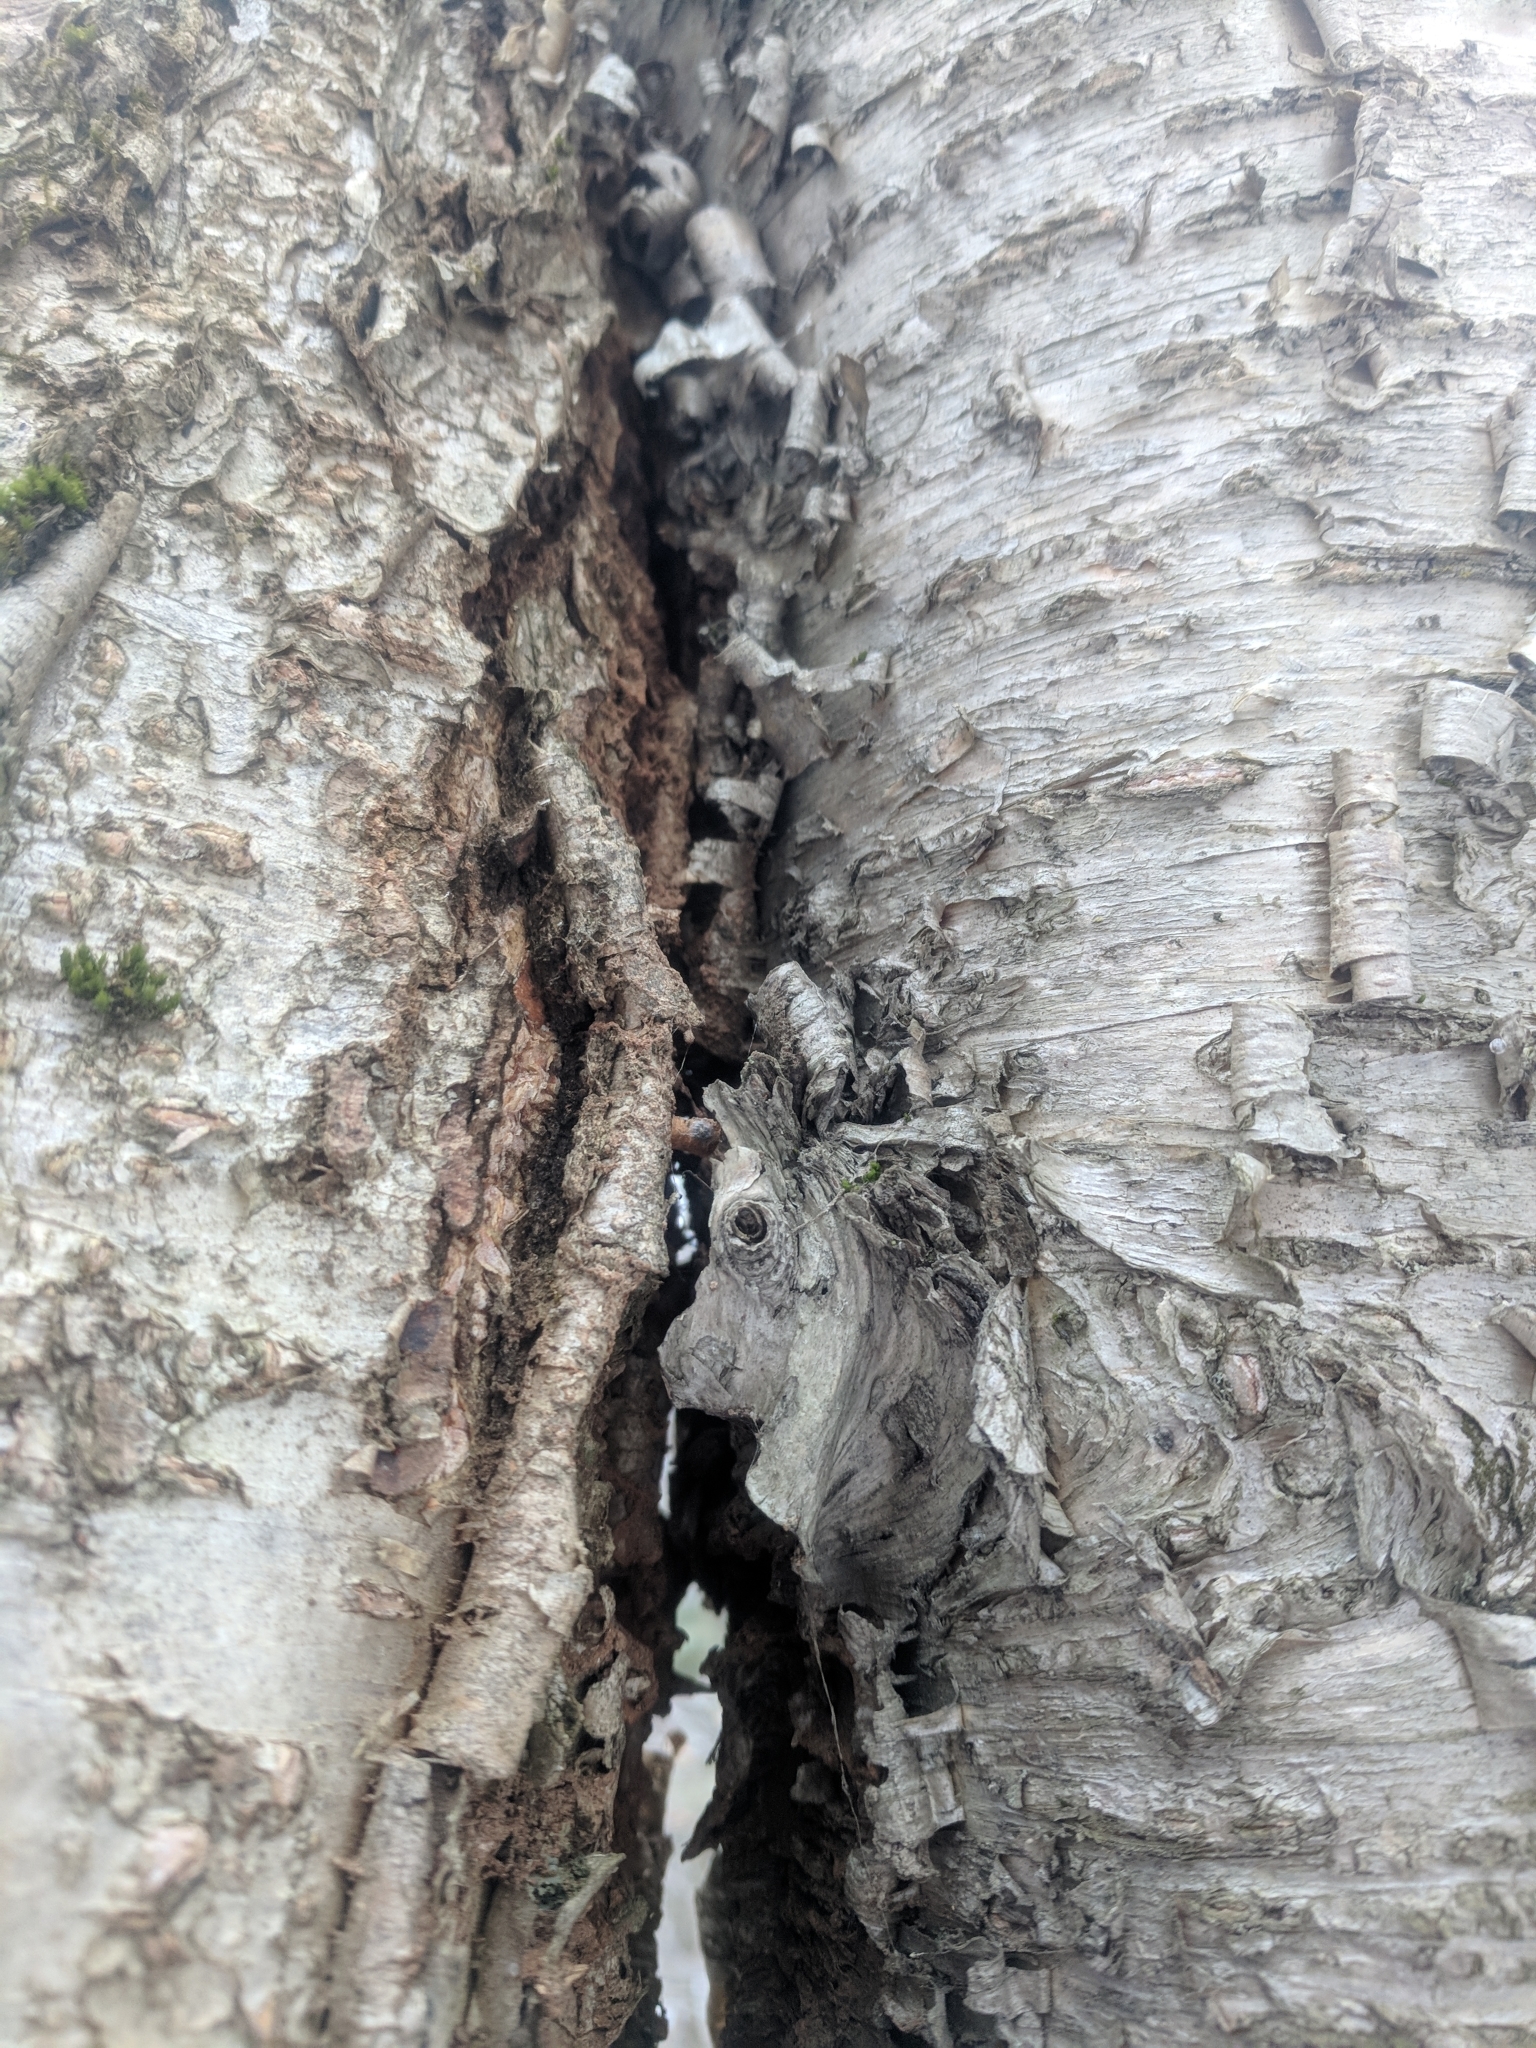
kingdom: Plantae
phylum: Tracheophyta
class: Magnoliopsida
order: Fagales
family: Betulaceae
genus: Betula
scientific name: Betula alleghaniensis
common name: Yellow birch
